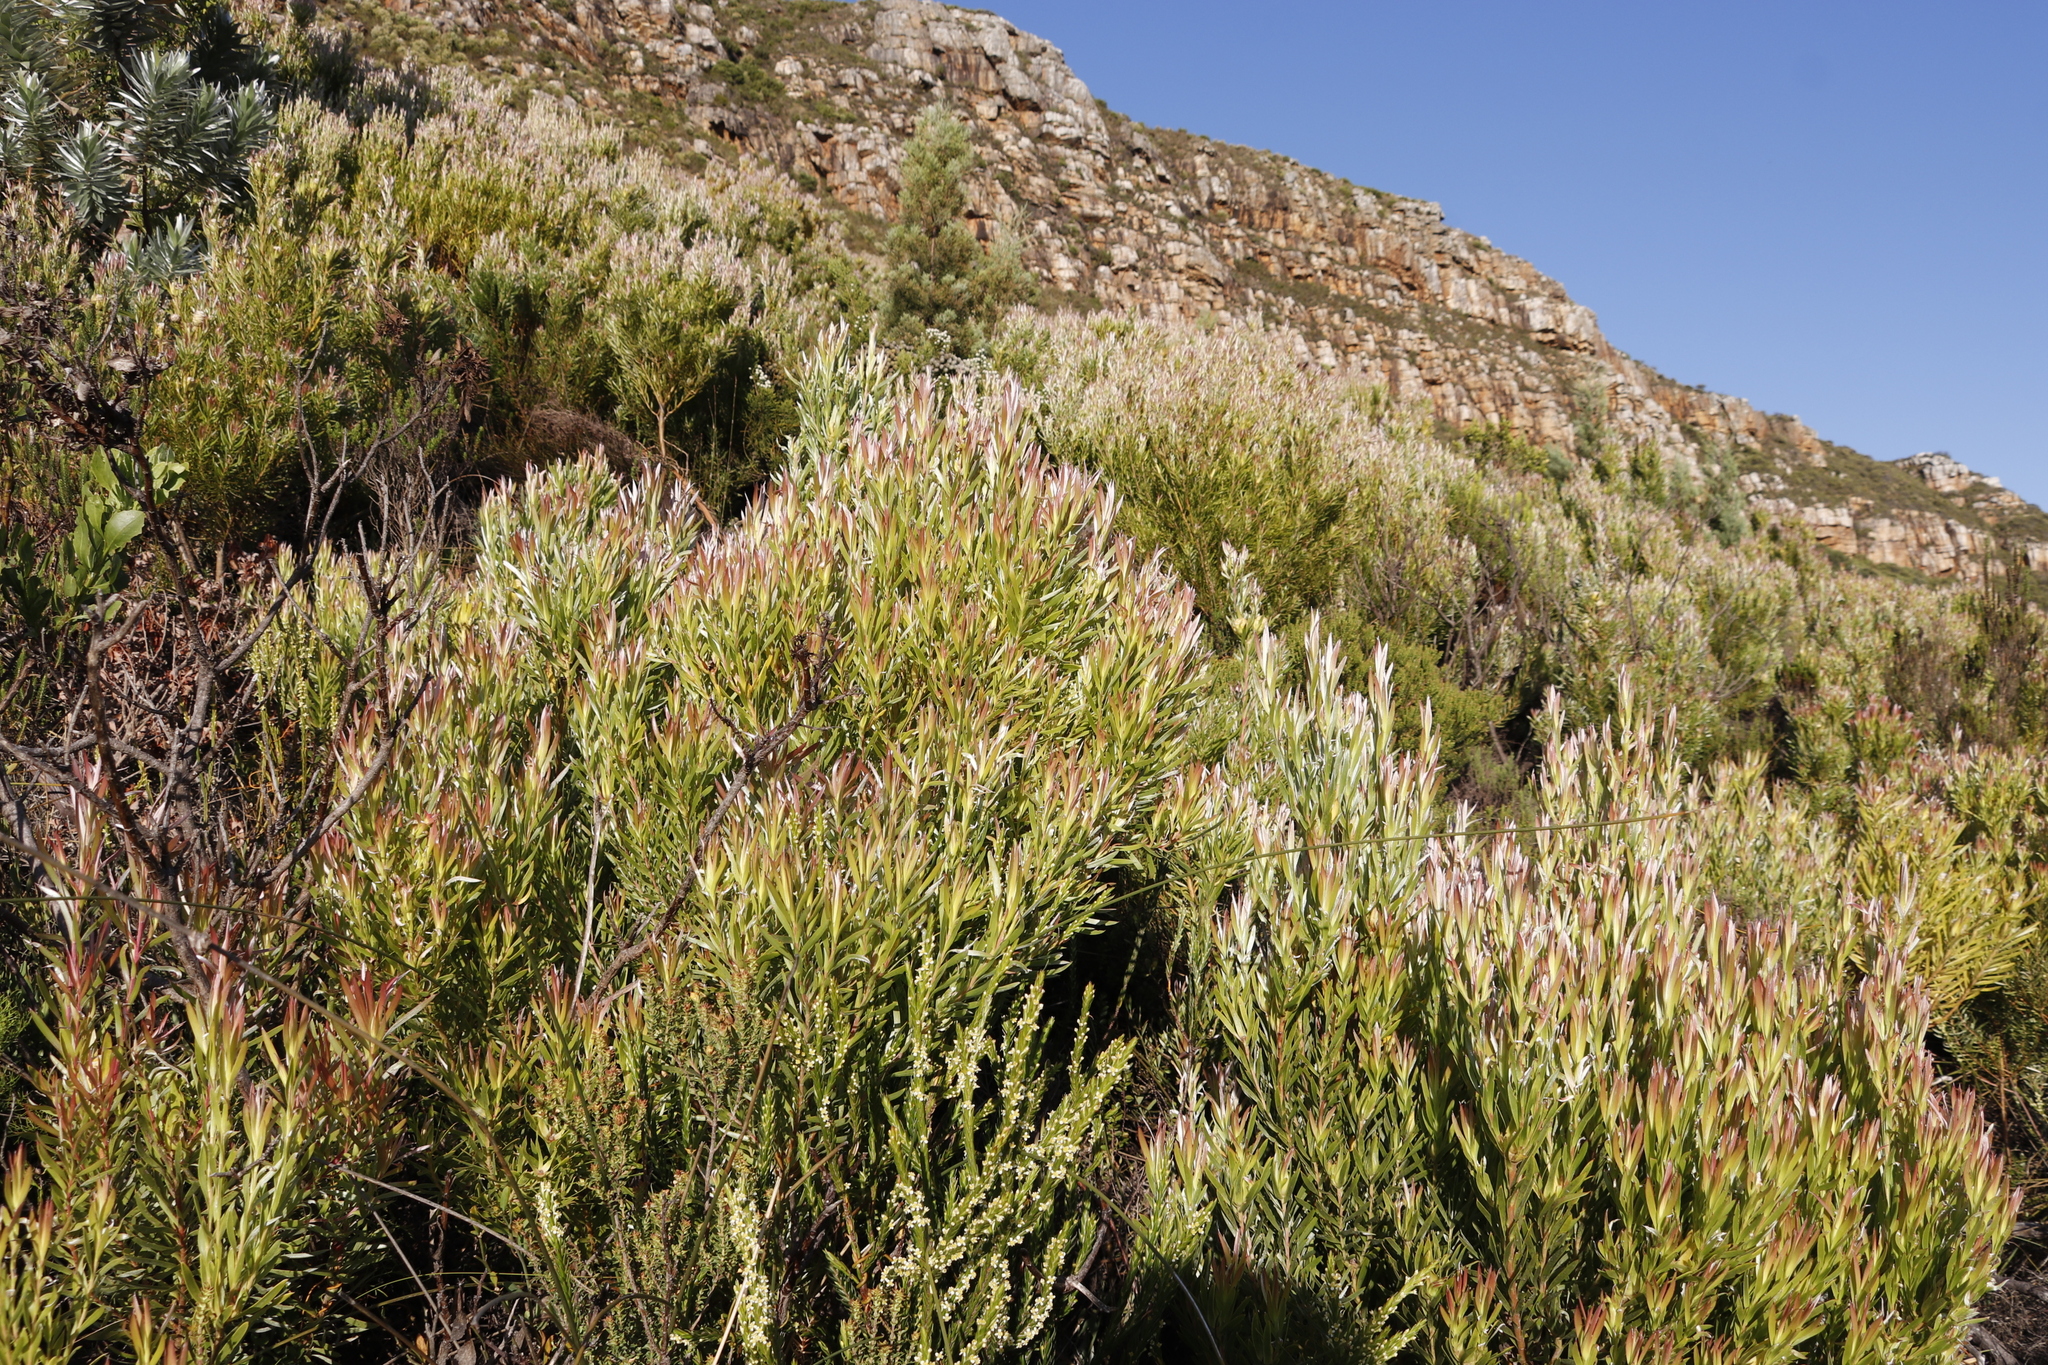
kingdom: Plantae
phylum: Tracheophyta
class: Magnoliopsida
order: Proteales
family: Proteaceae
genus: Leucadendron
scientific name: Leucadendron xanthoconus
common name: Sickle-leaf conebush
